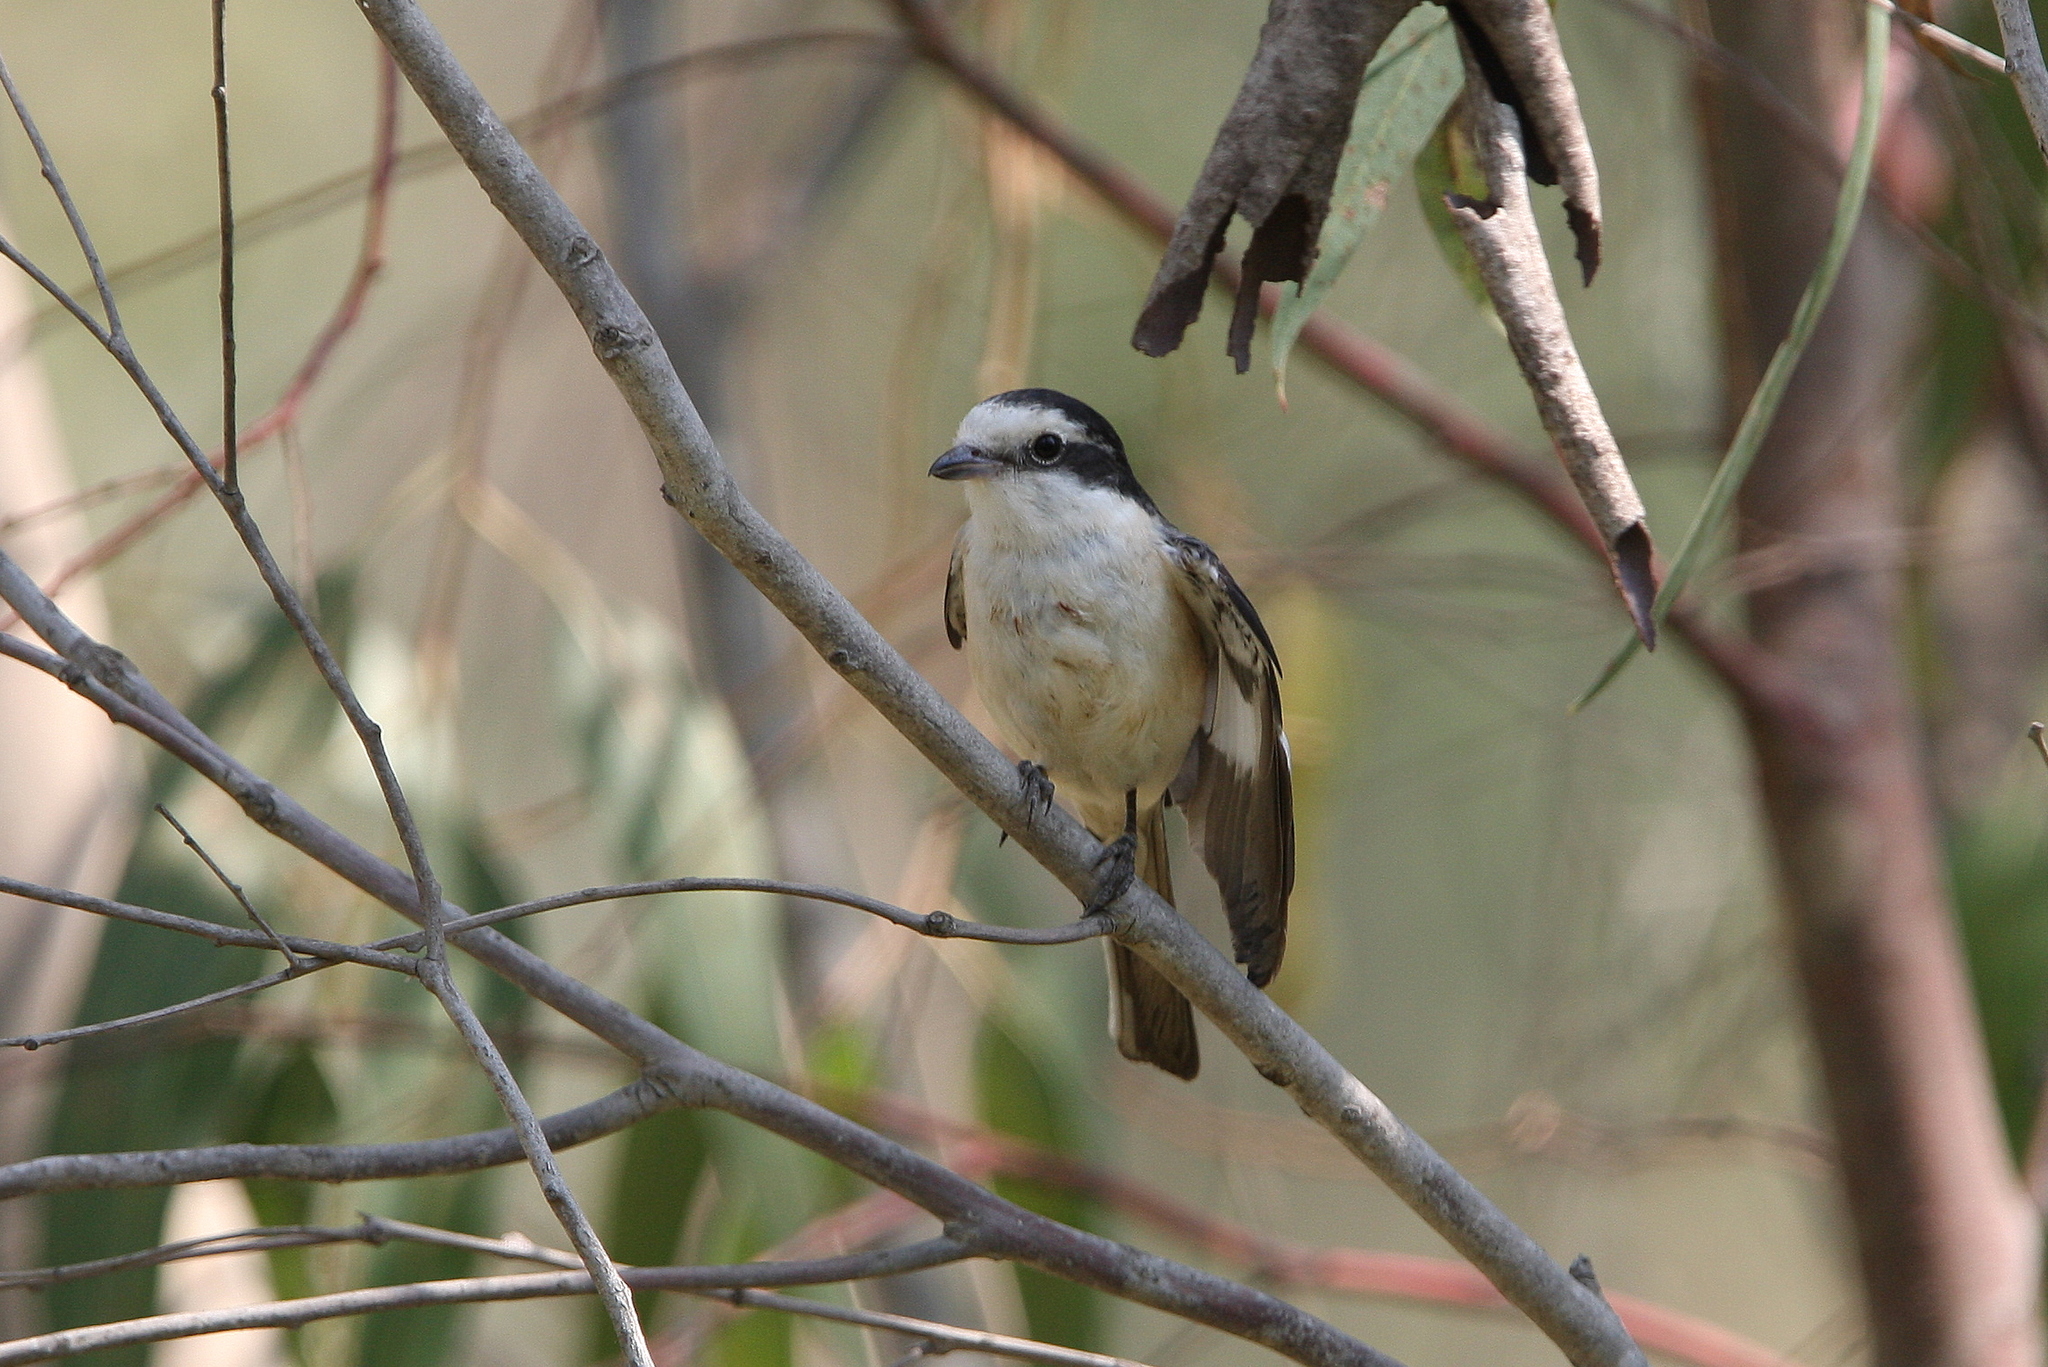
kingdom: Animalia
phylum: Chordata
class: Aves
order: Passeriformes
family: Laniidae
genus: Lanius
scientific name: Lanius nubicus
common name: Masked shrike
